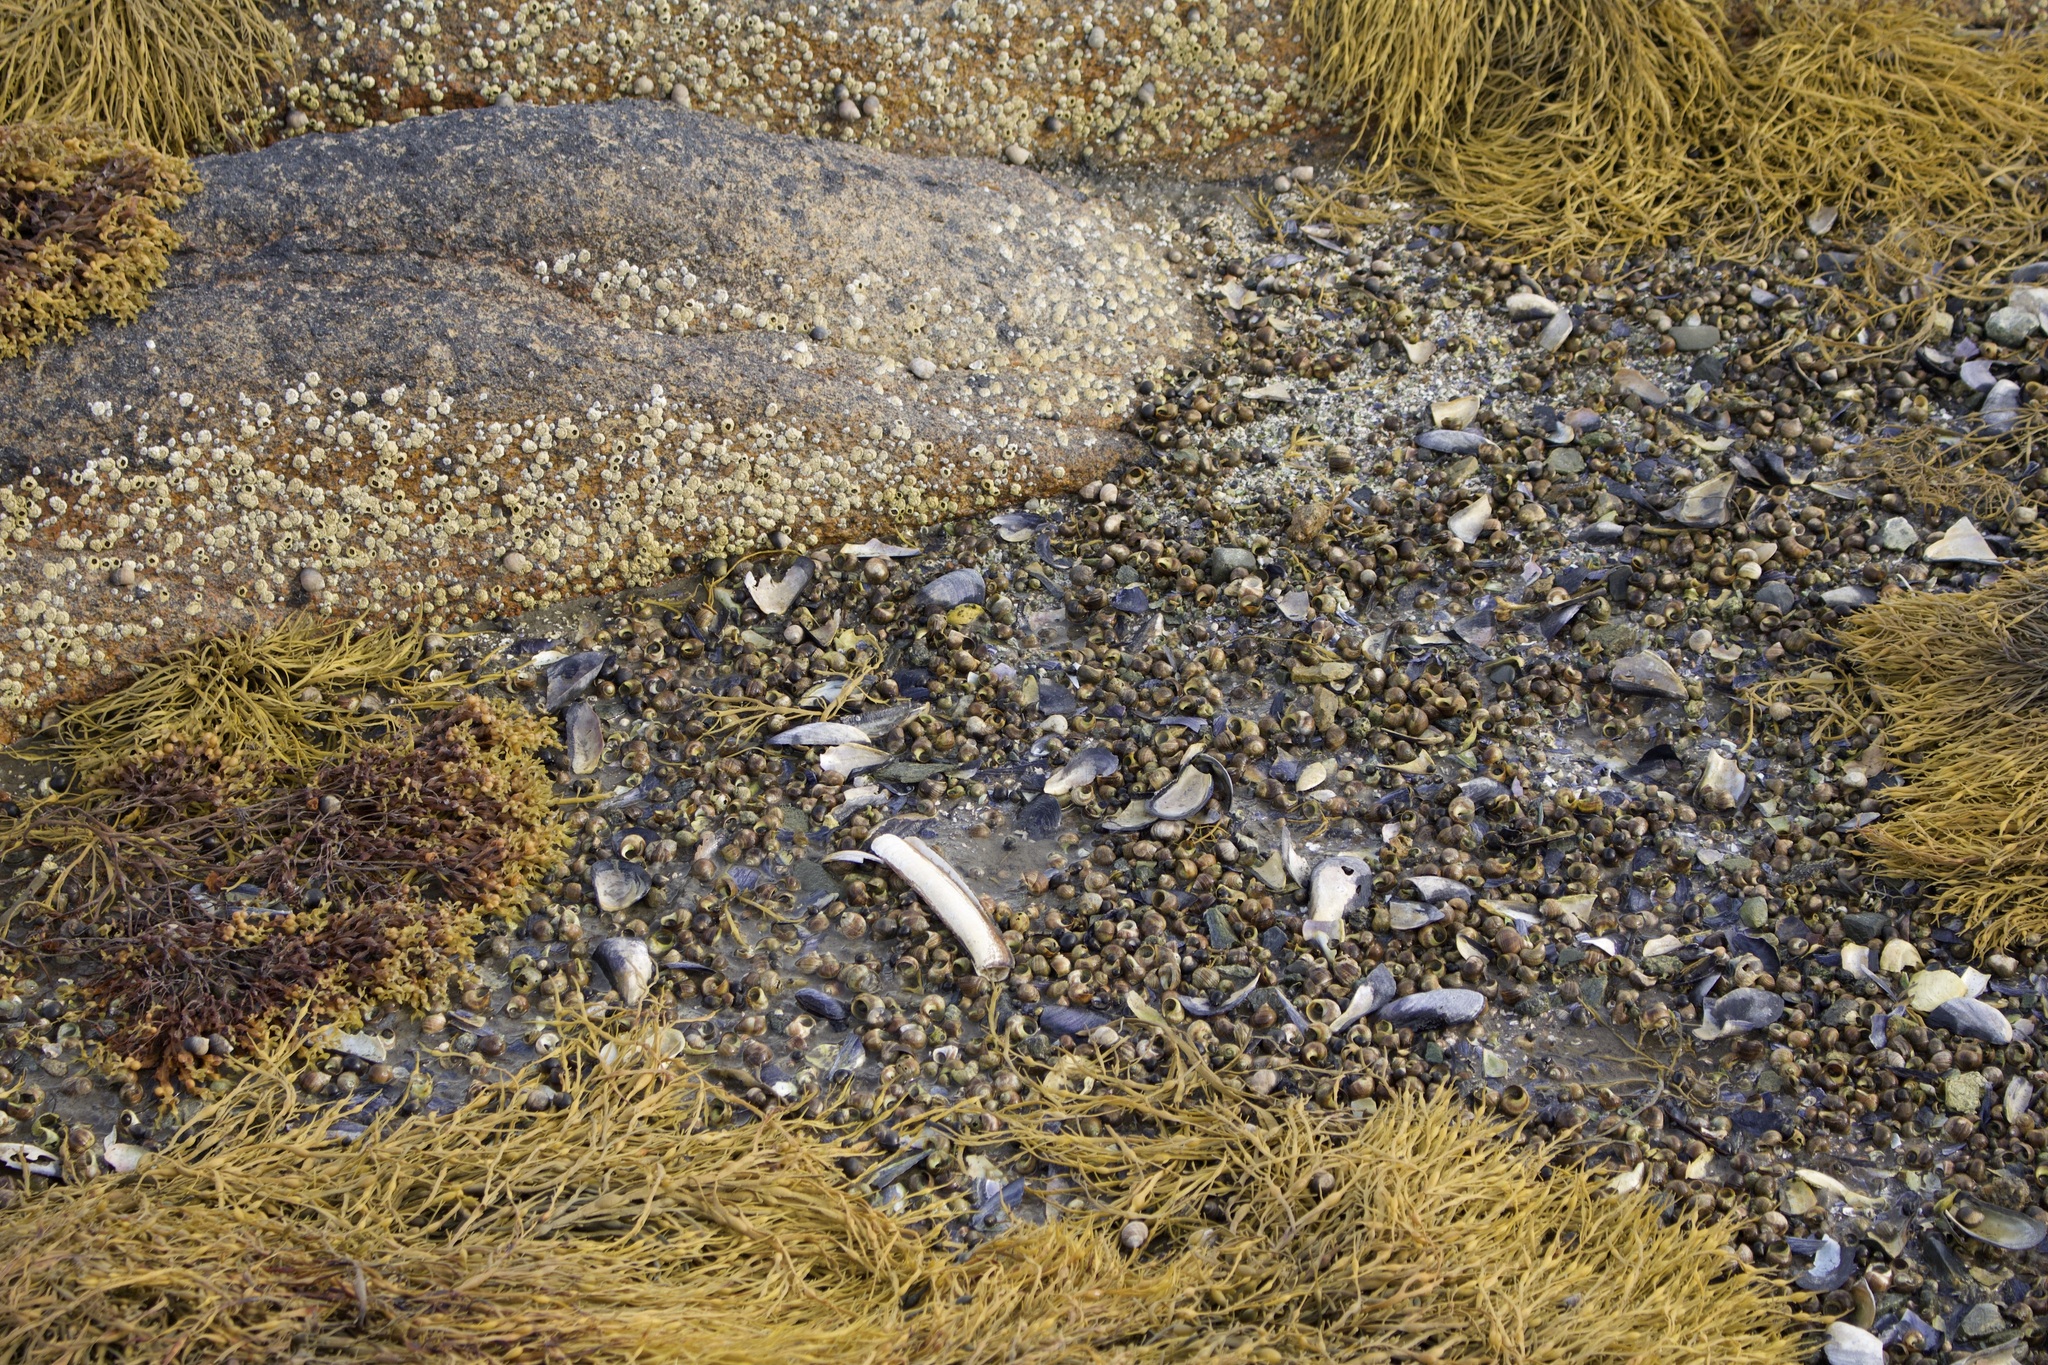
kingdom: Animalia
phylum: Mollusca
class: Bivalvia
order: Adapedonta
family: Pharidae
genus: Ensis
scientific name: Ensis leei
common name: American jack knife clam
